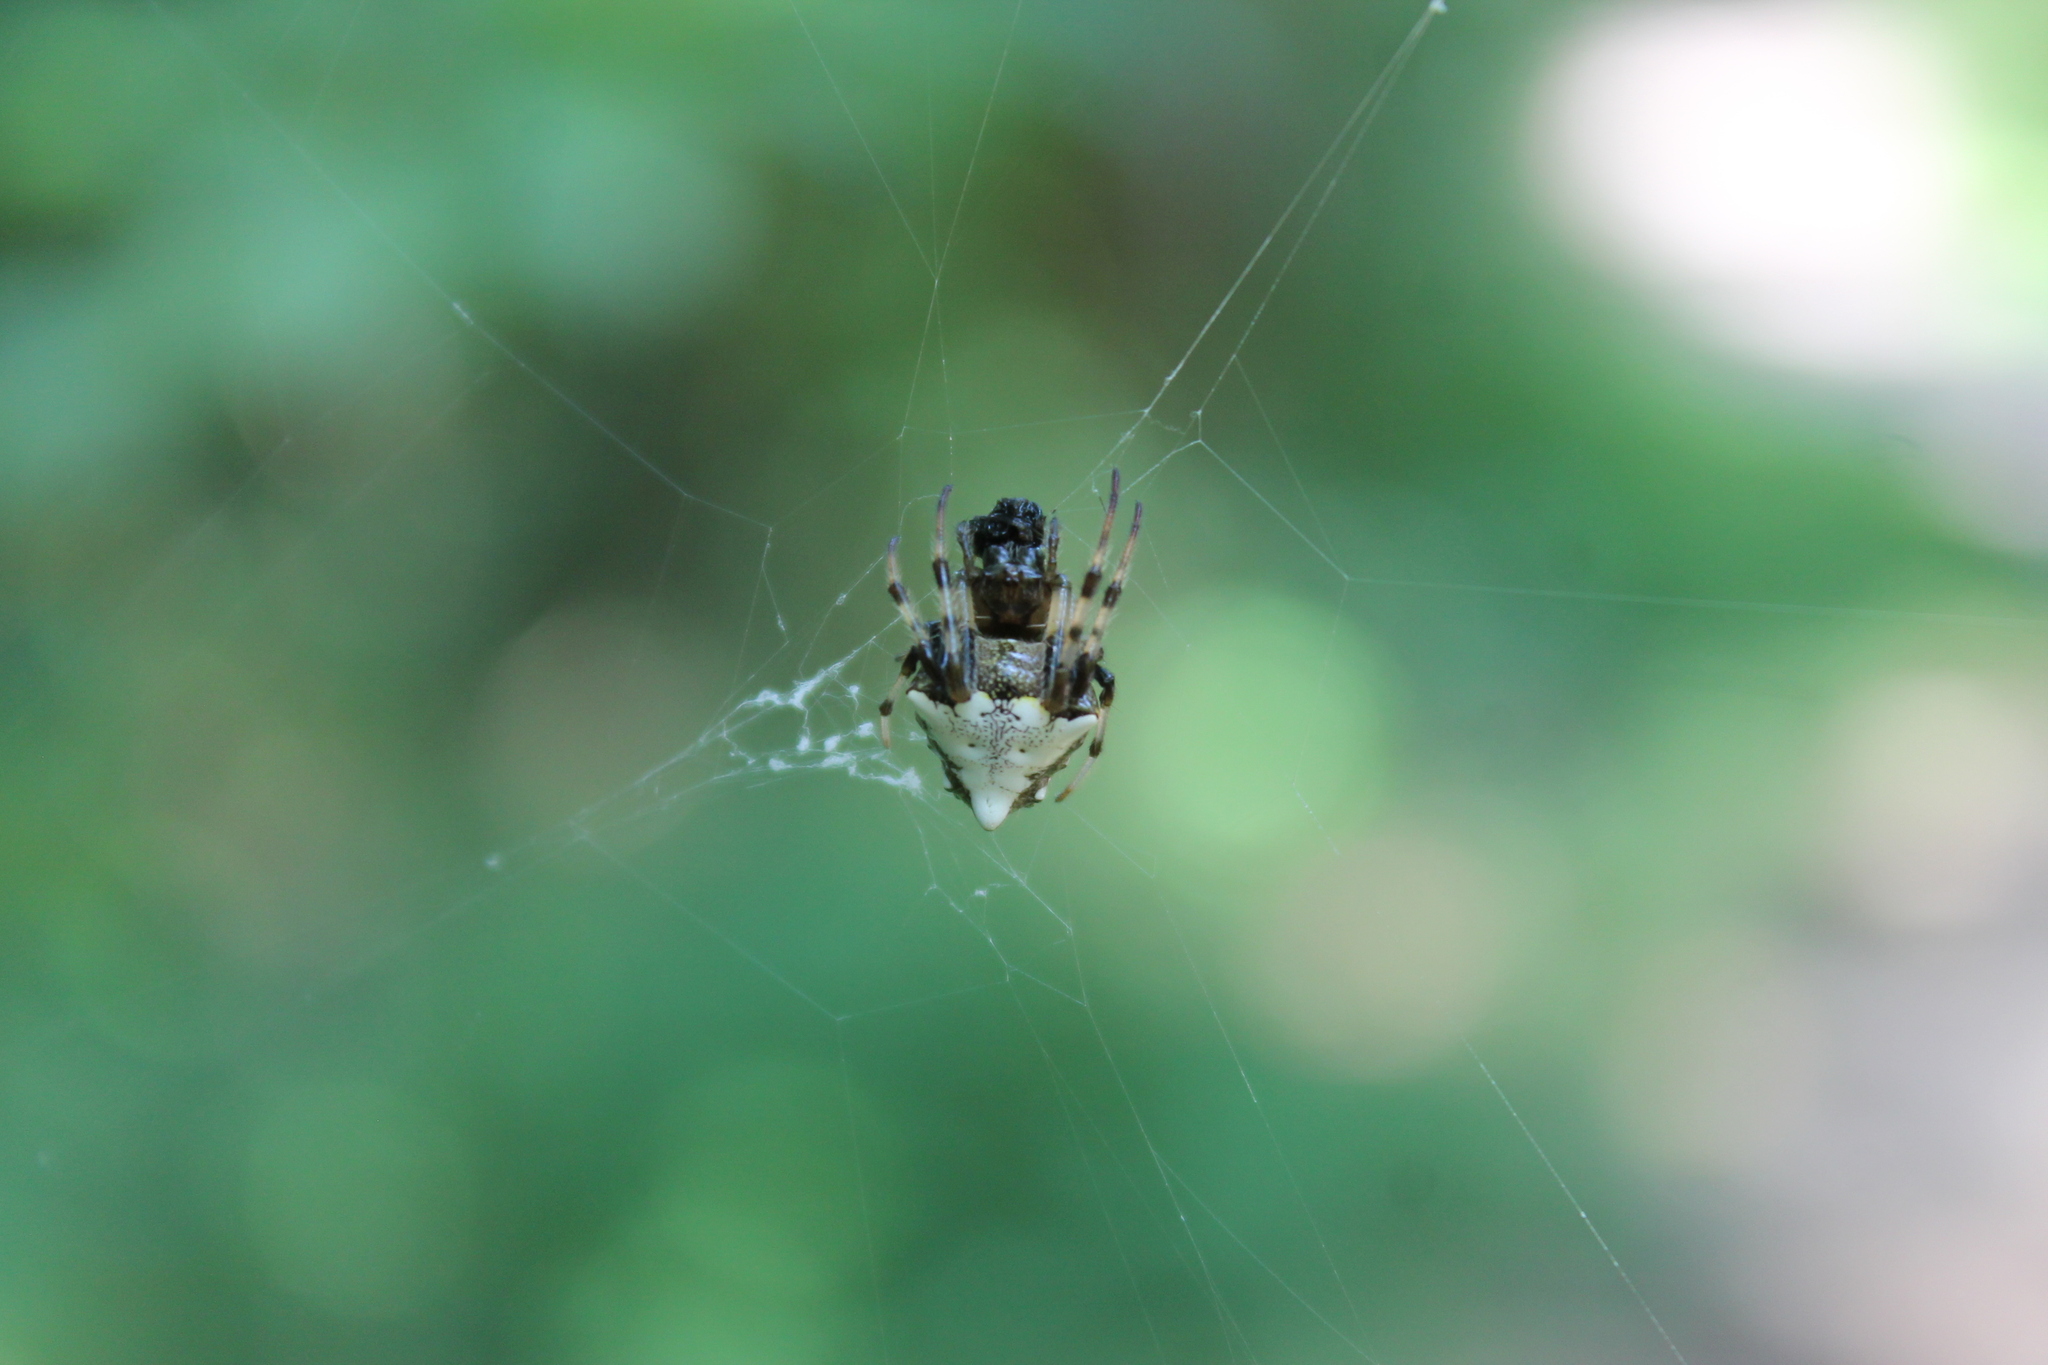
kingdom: Animalia
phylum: Arthropoda
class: Arachnida
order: Araneae
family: Araneidae
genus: Verrucosa
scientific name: Verrucosa arenata
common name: Orb weavers
